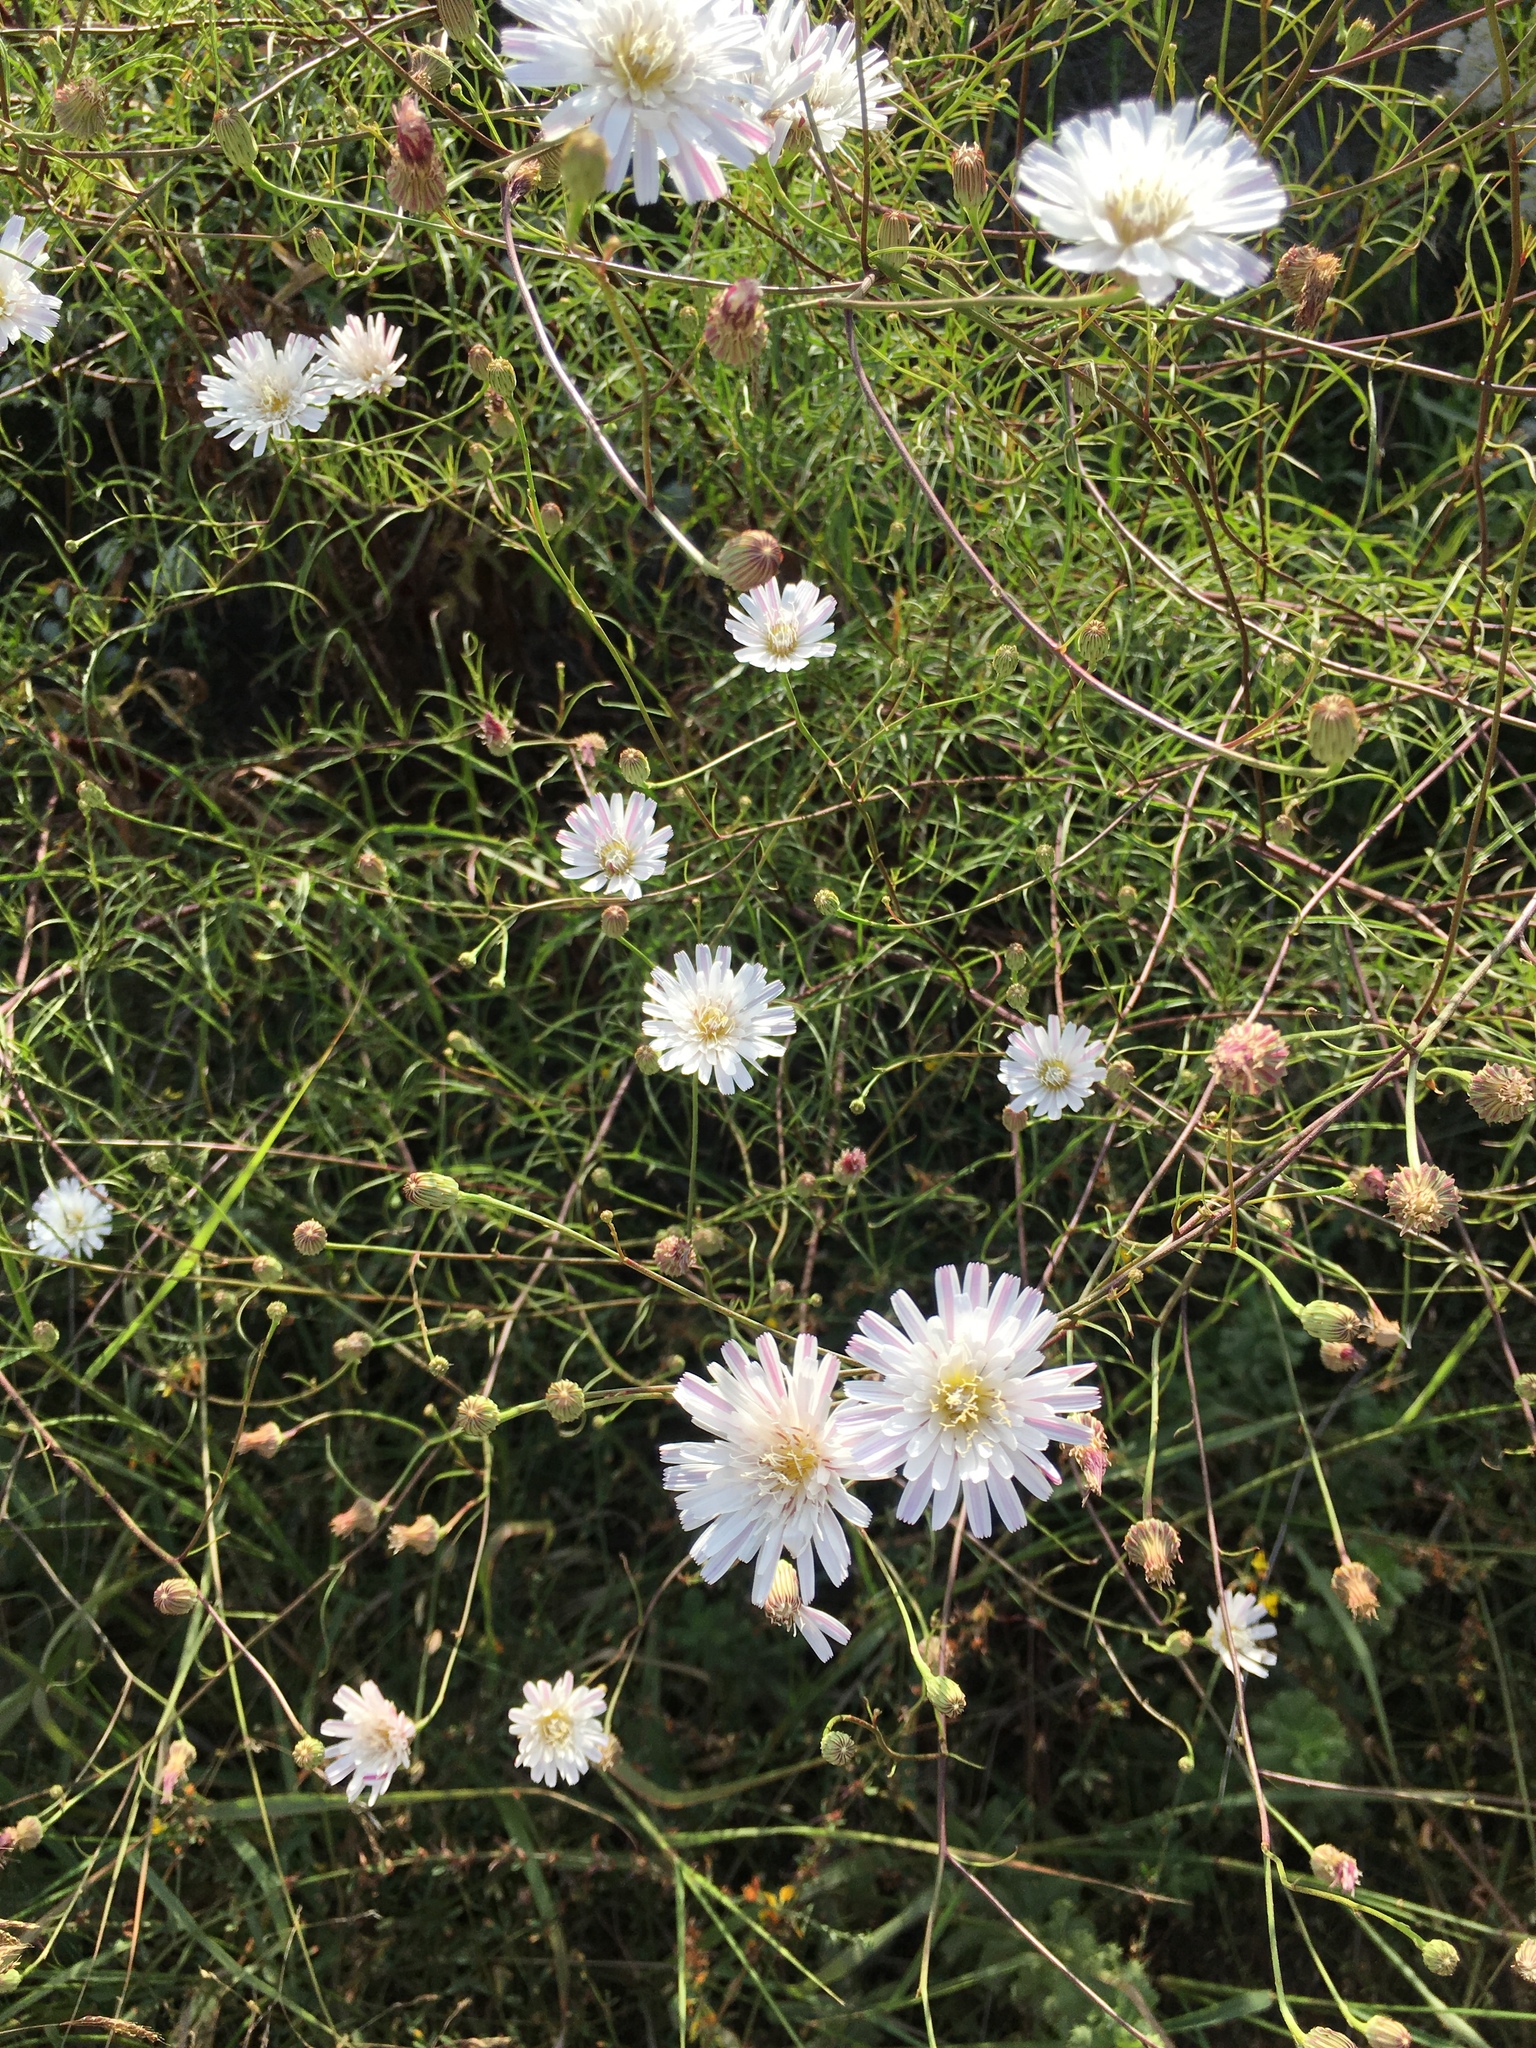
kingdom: Plantae
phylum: Tracheophyta
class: Magnoliopsida
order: Asterales
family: Asteraceae
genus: Malacothrix
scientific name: Malacothrix saxatilis
